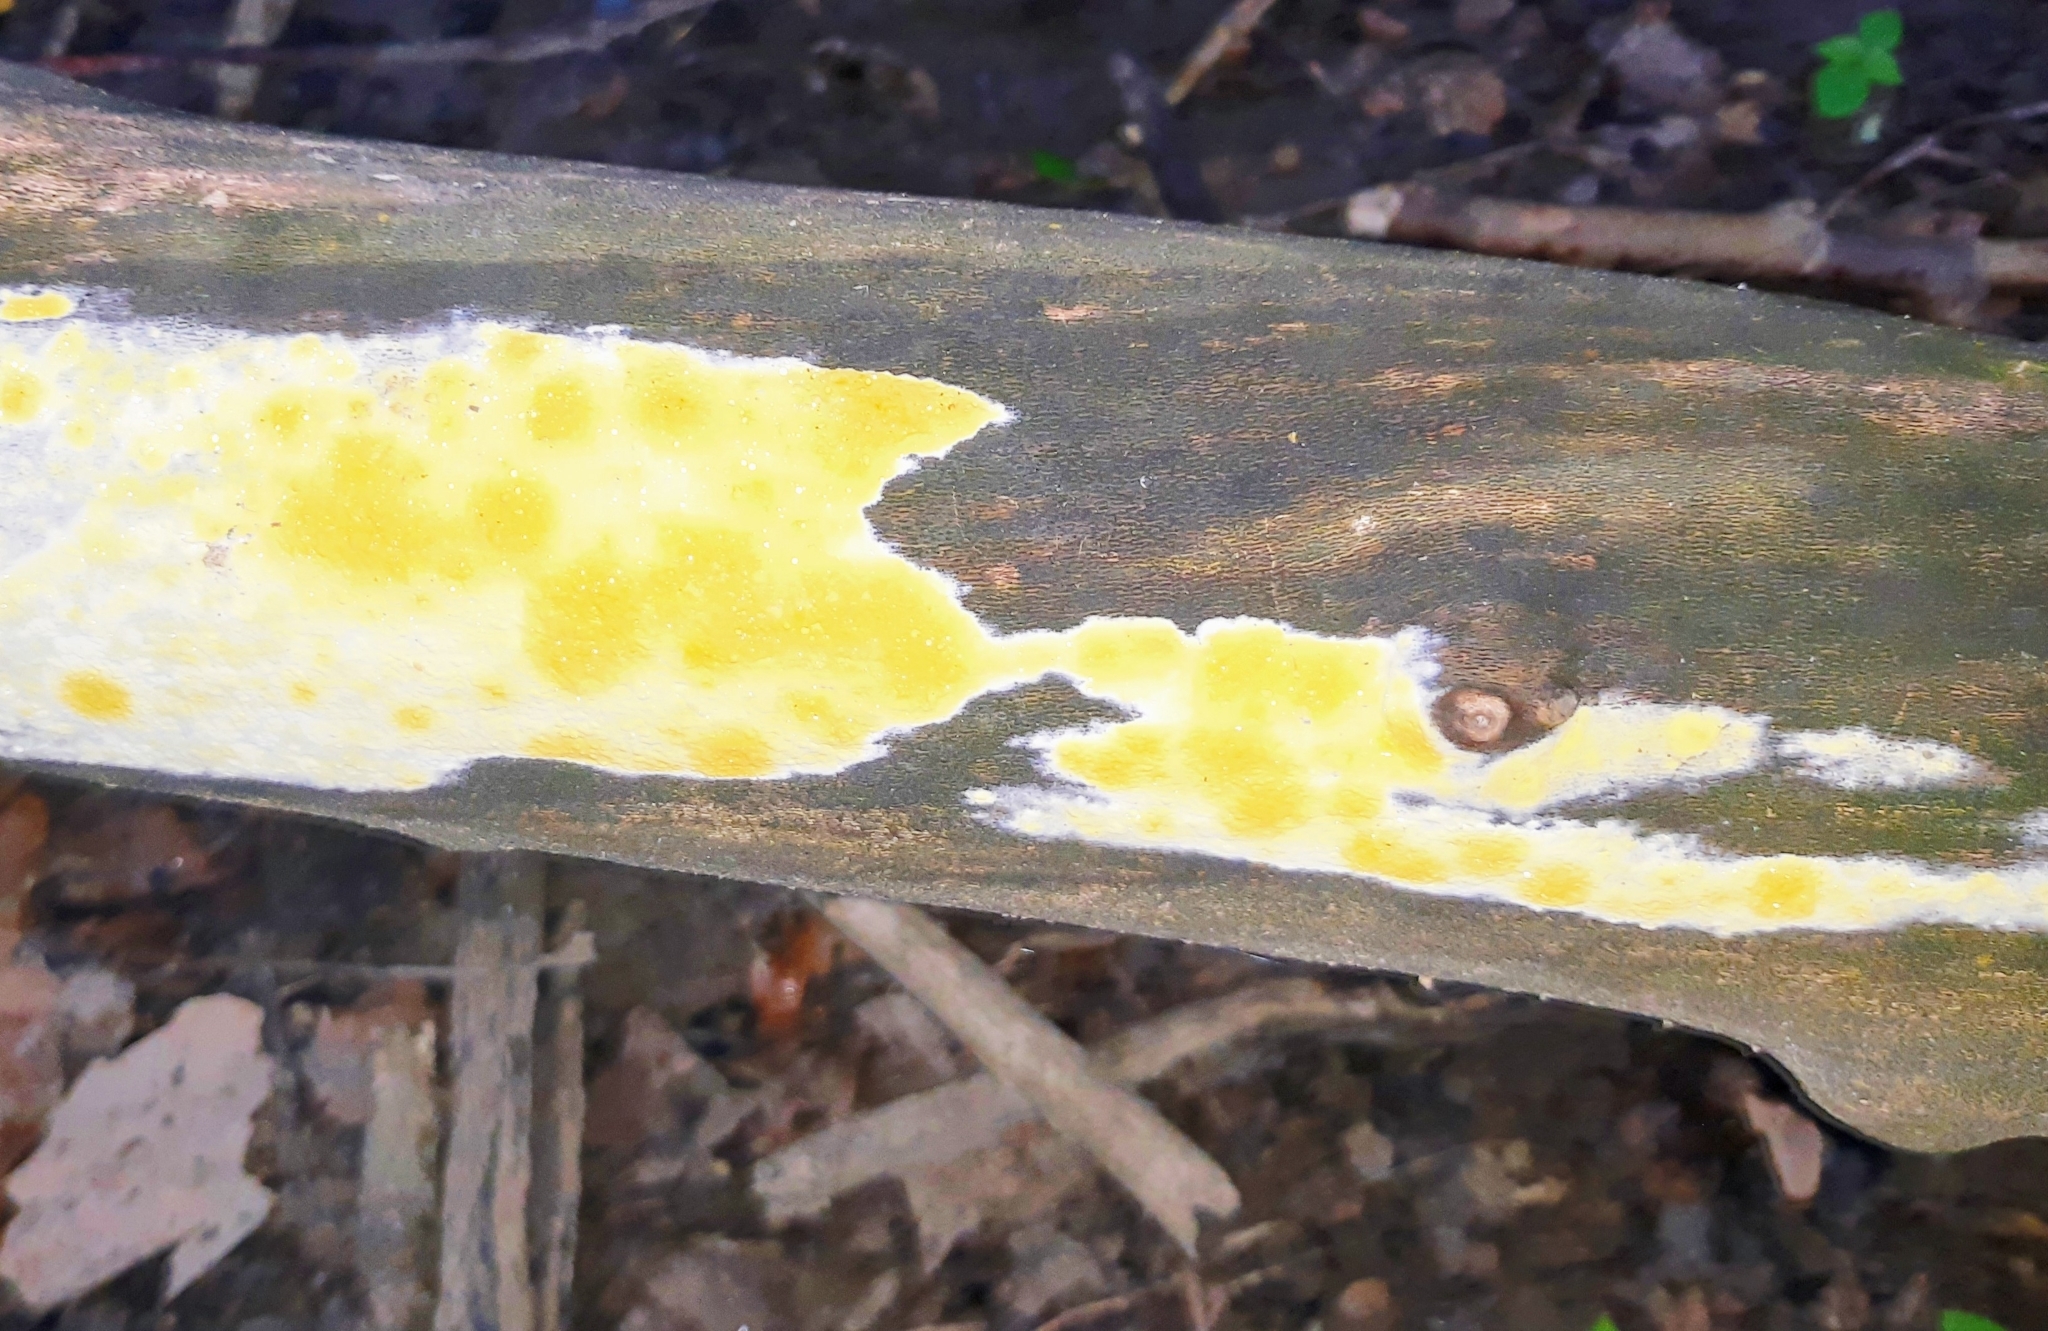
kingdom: Fungi
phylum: Ascomycota
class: Sordariomycetes
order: Hypocreales
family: Hypocreaceae
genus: Trichoderma
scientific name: Trichoderma sulphureum
